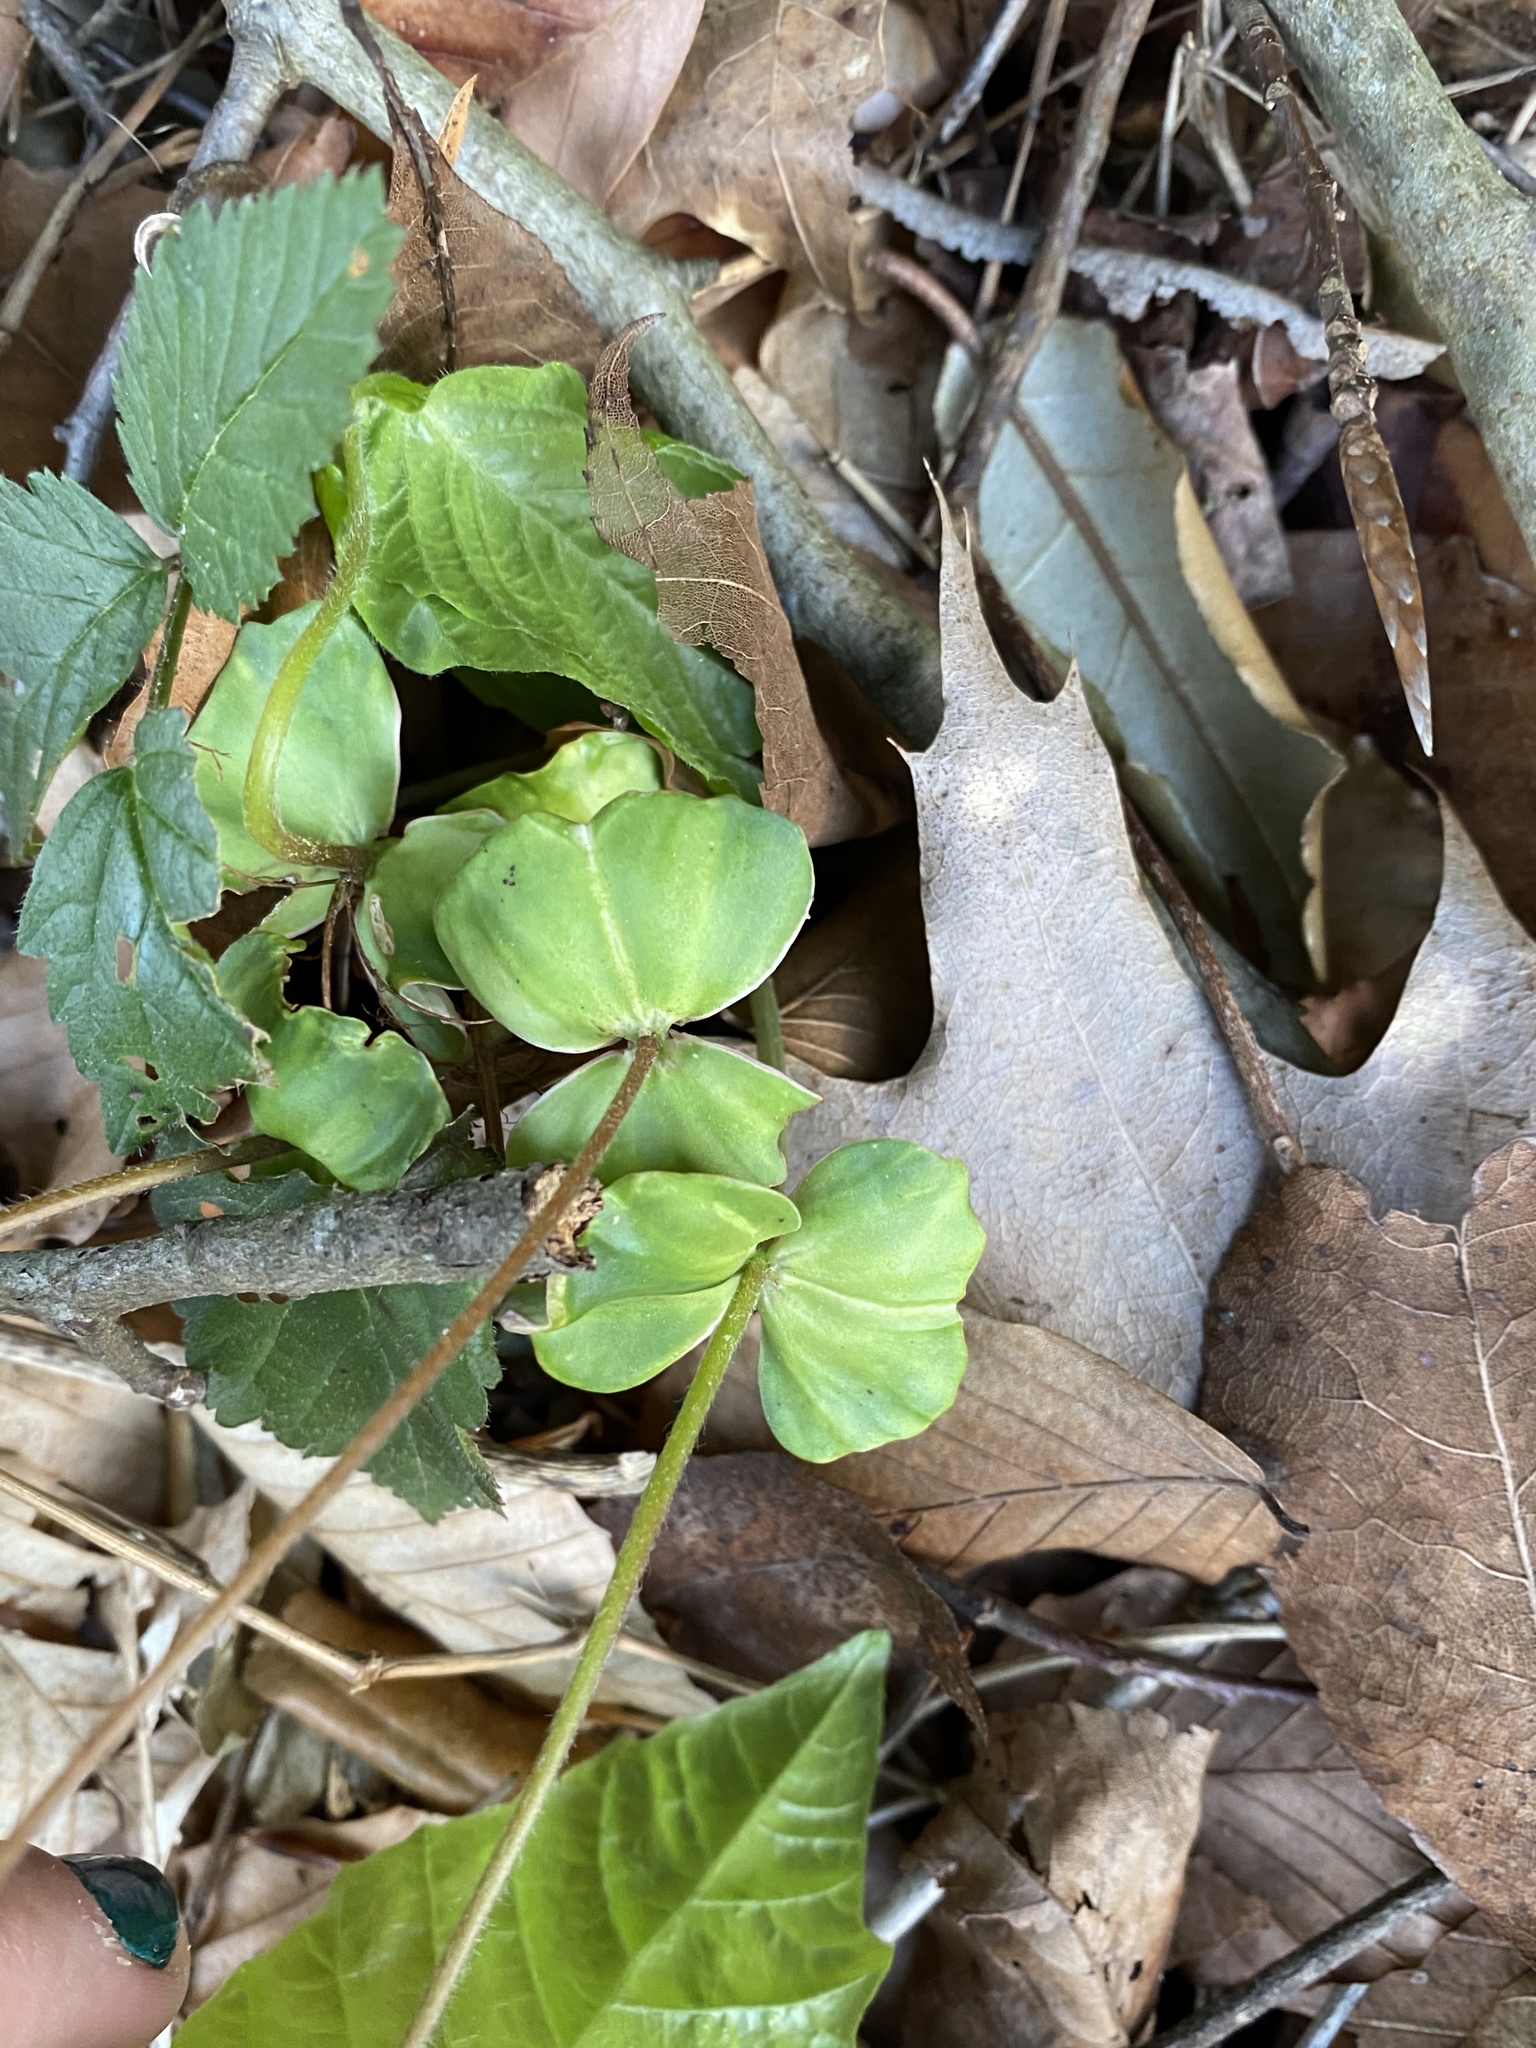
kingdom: Plantae
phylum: Tracheophyta
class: Magnoliopsida
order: Fagales
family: Fagaceae
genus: Fagus
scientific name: Fagus grandifolia
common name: American beech
